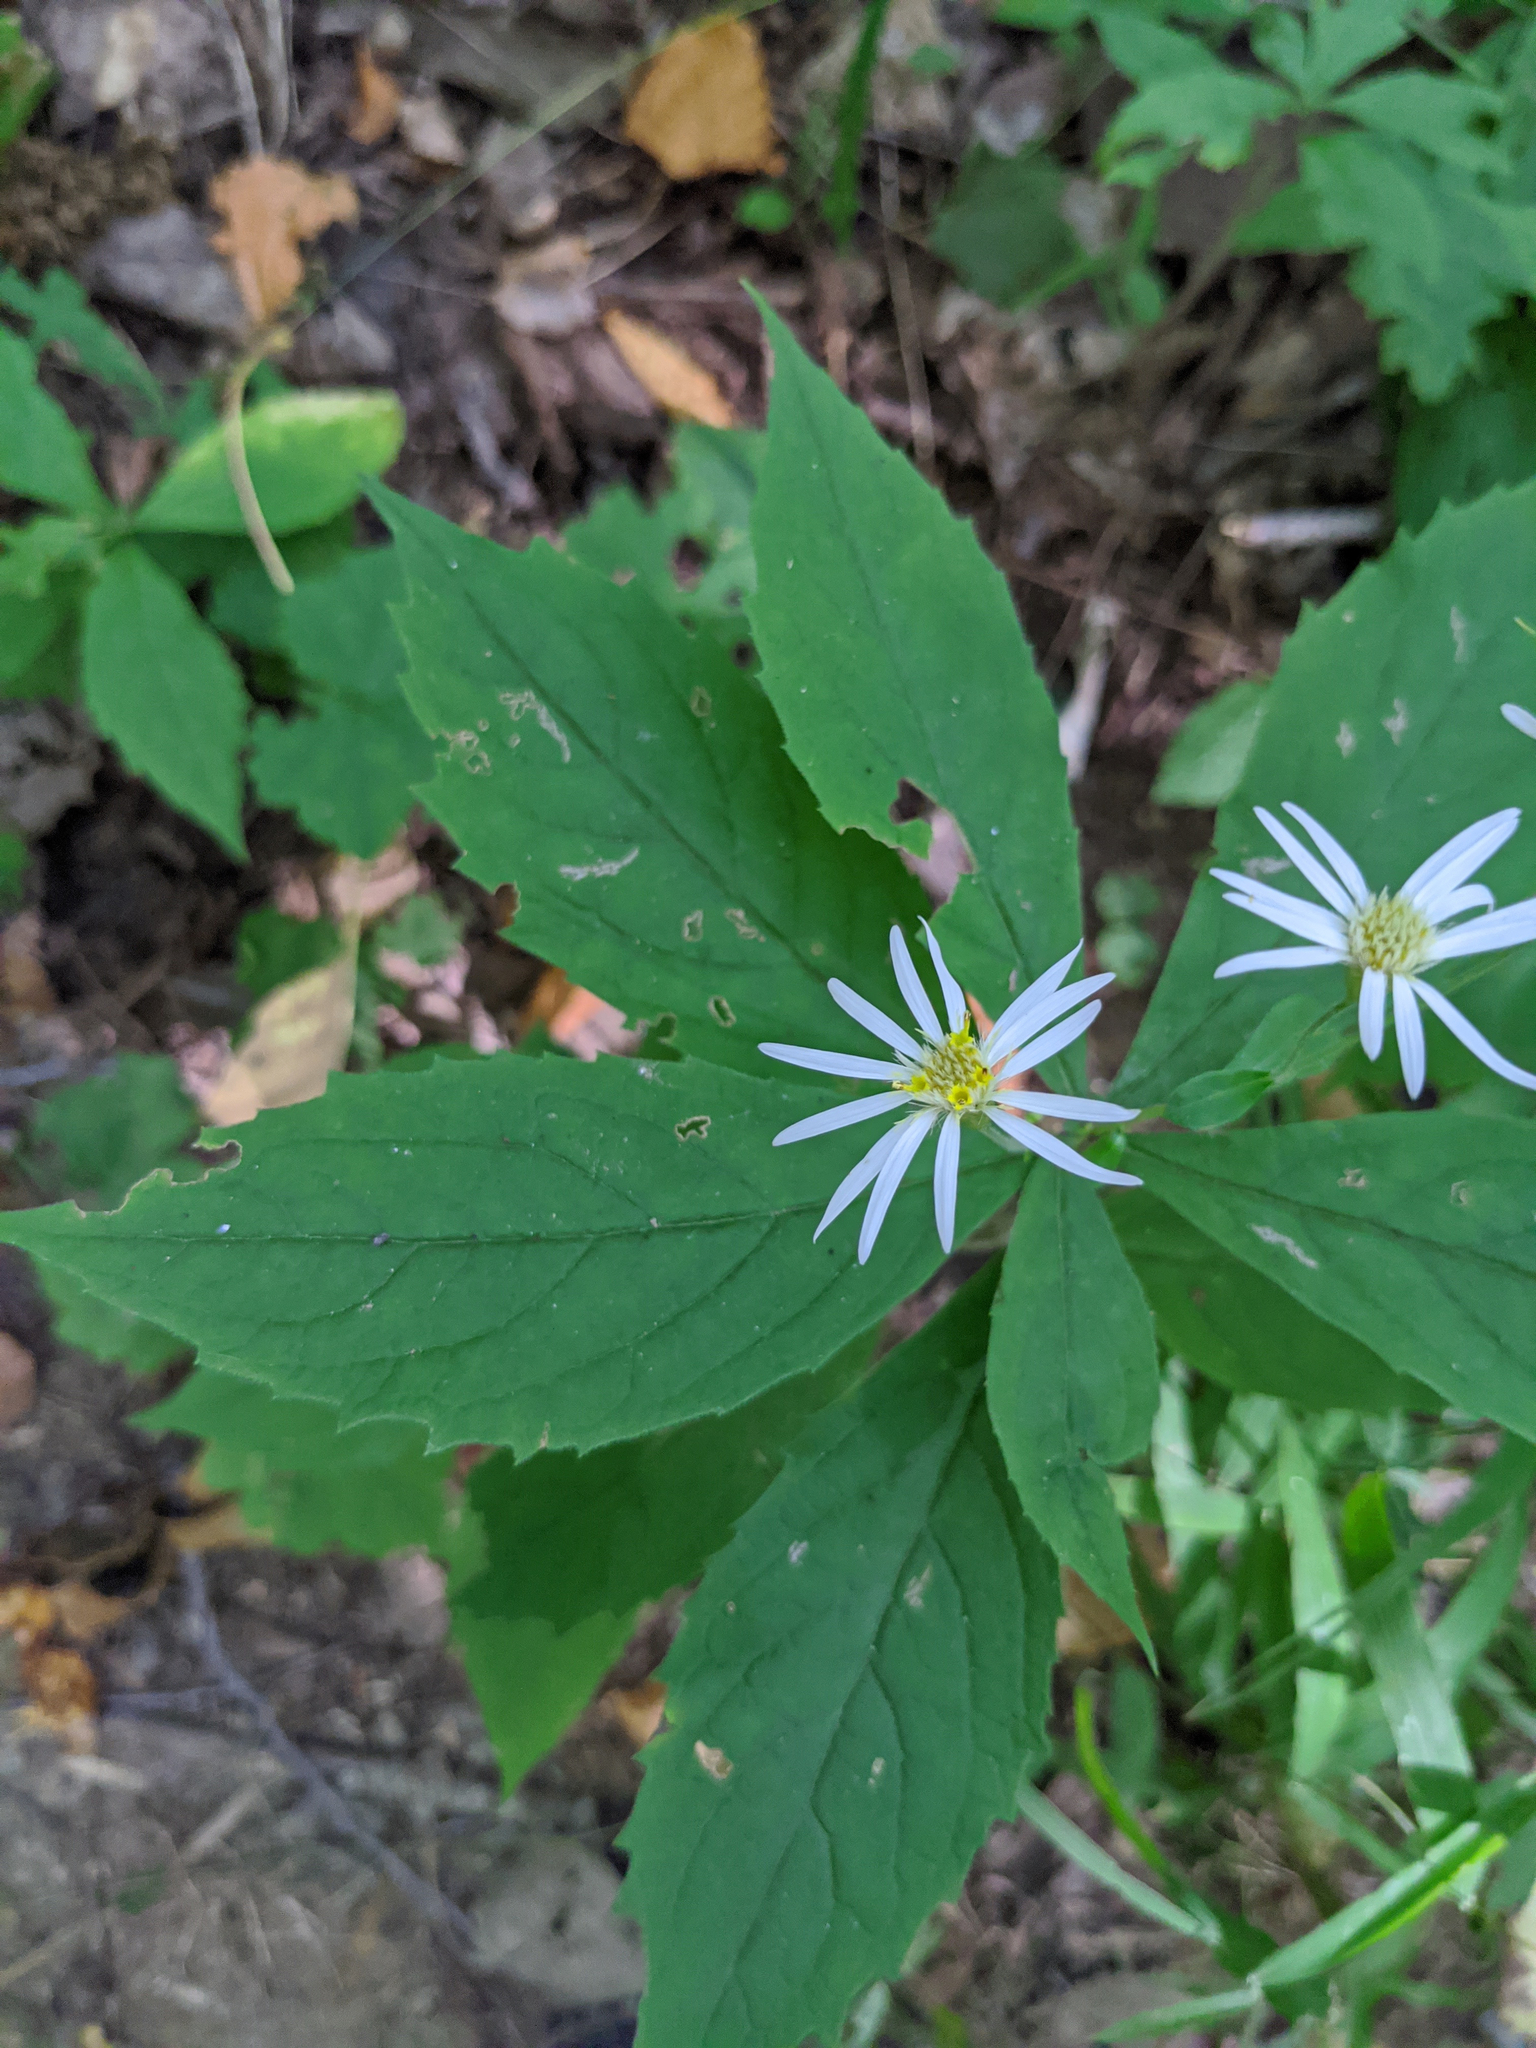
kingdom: Plantae
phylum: Tracheophyta
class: Magnoliopsida
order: Asterales
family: Asteraceae
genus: Oclemena
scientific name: Oclemena acuminata
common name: Mountain aster
